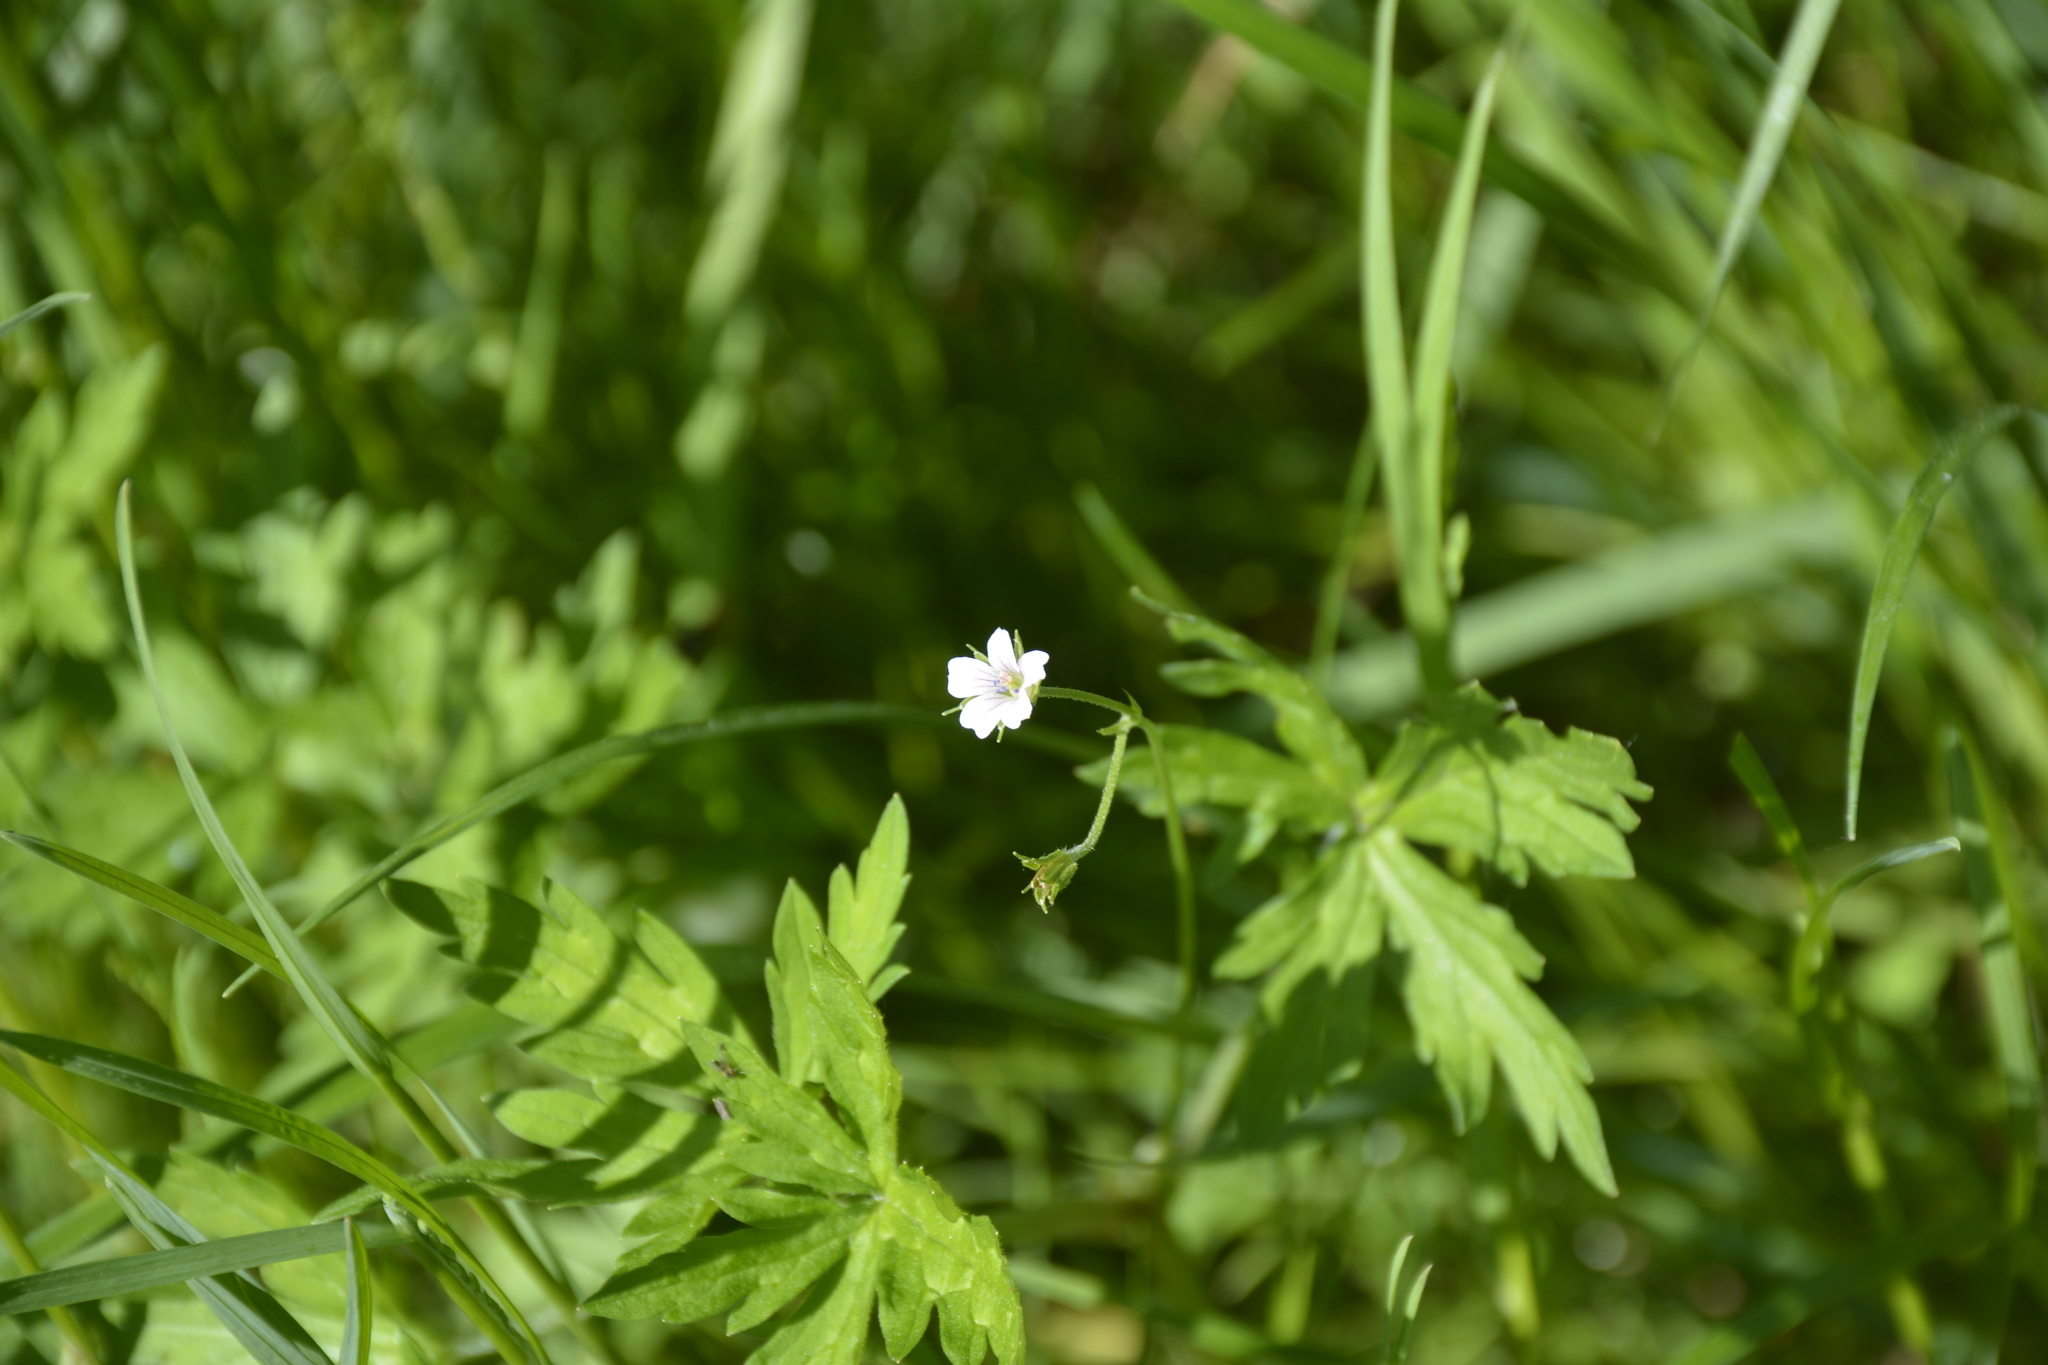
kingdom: Plantae
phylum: Tracheophyta
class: Magnoliopsida
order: Geraniales
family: Geraniaceae
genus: Geranium
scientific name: Geranium sibiricum
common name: Siberian crane's-bill
